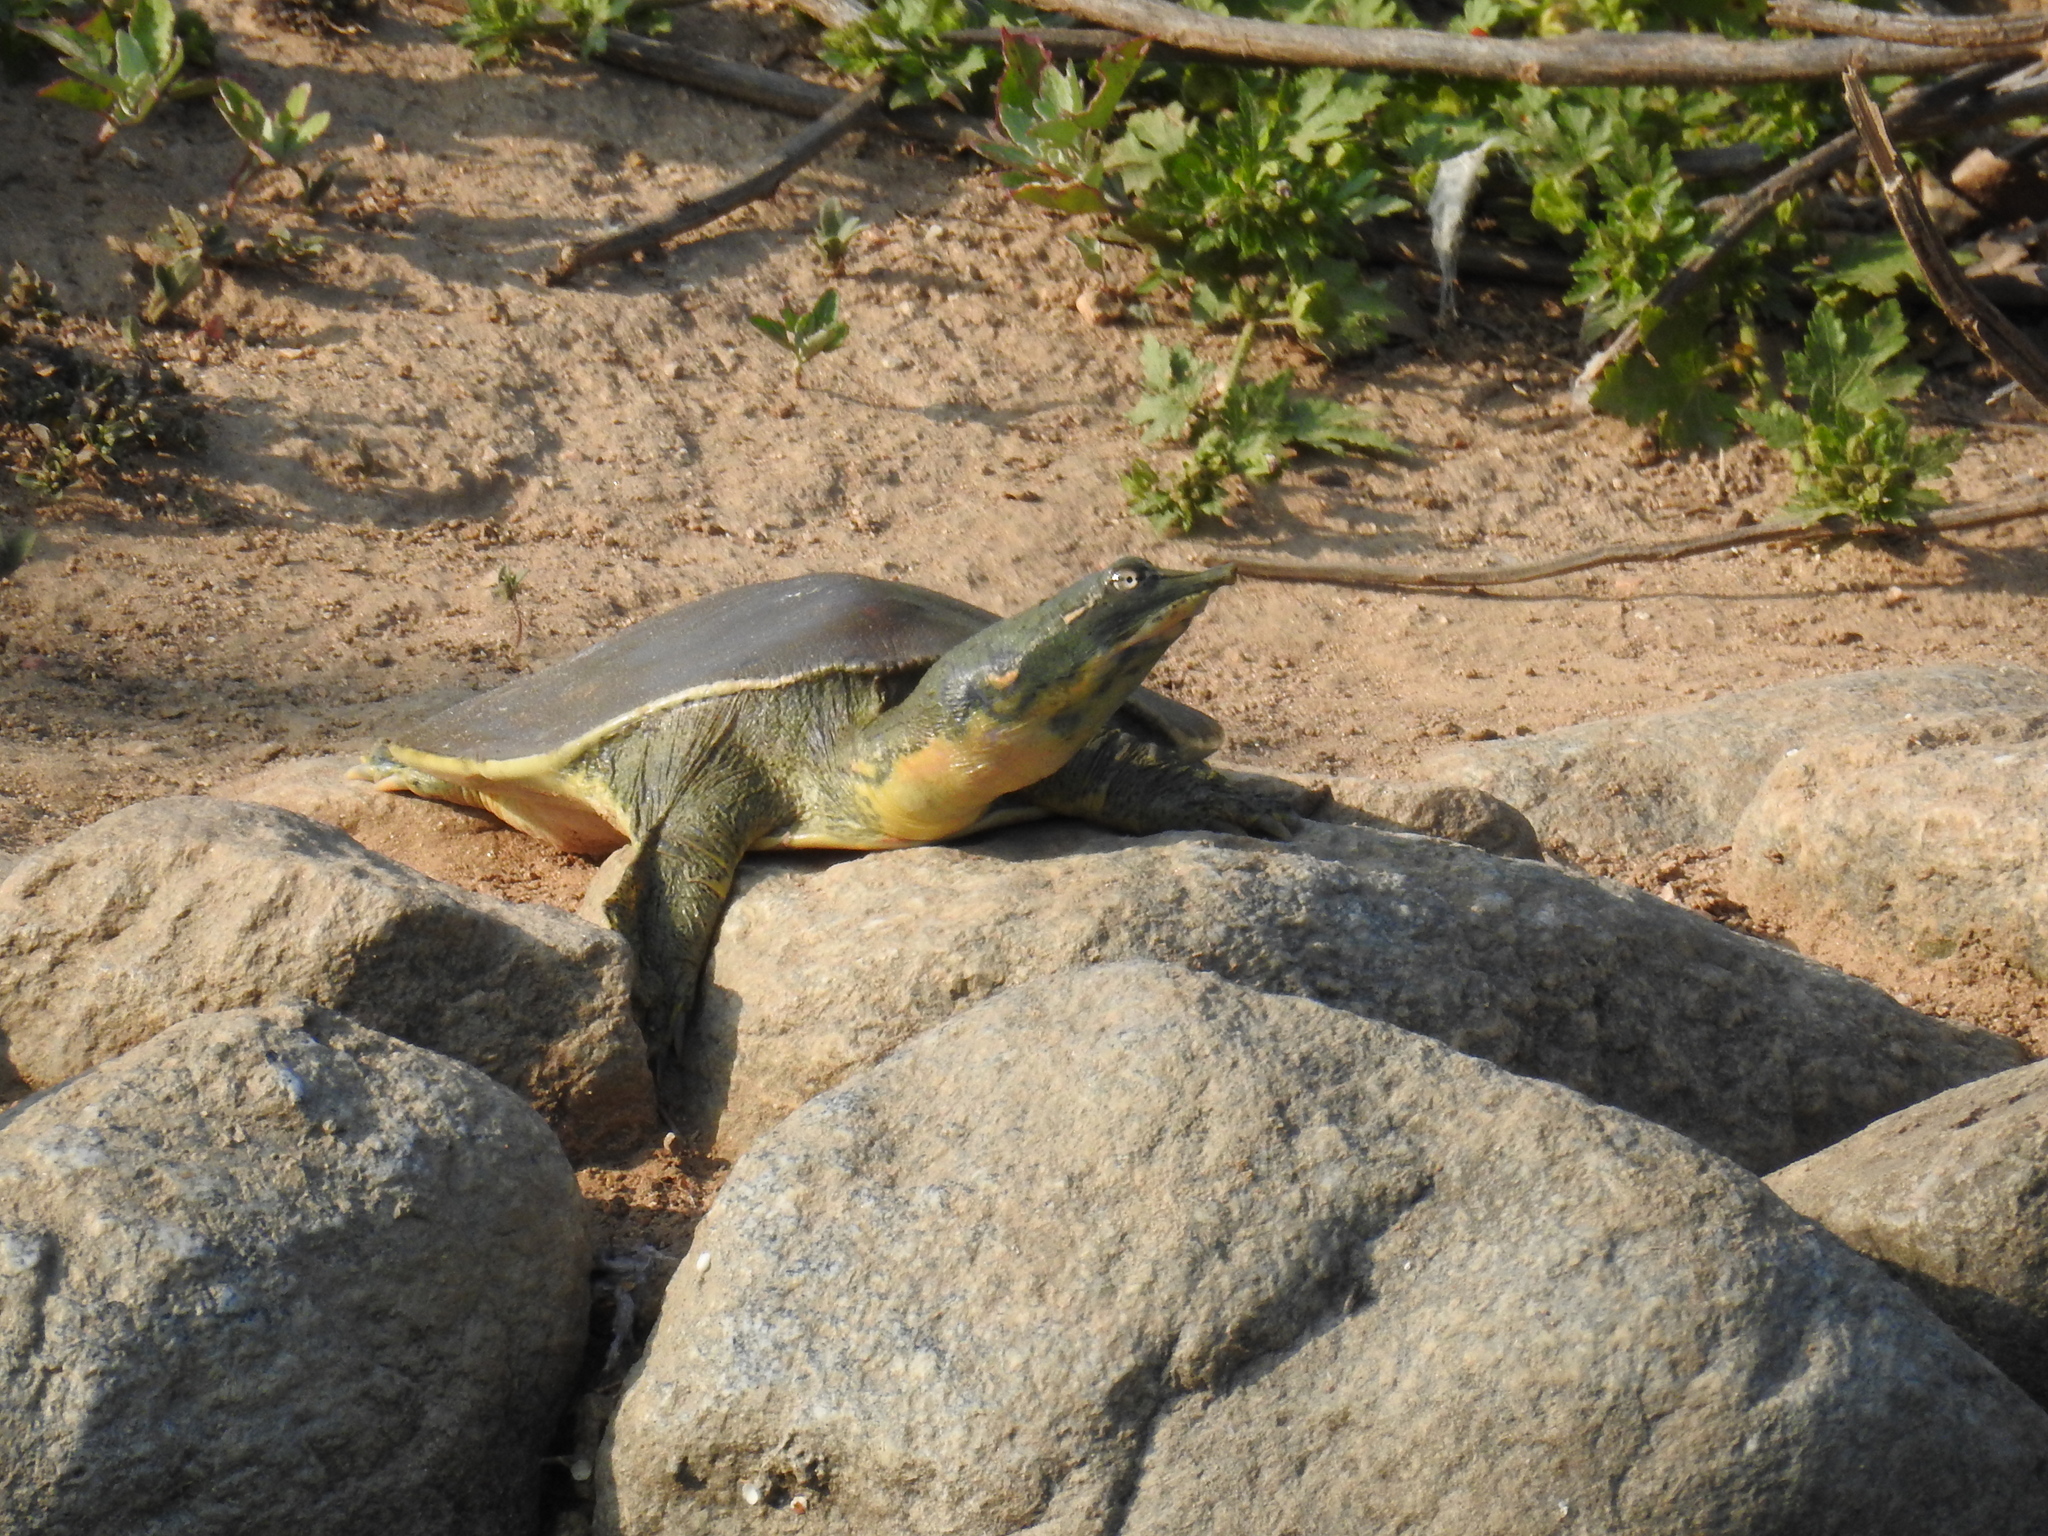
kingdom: Animalia
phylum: Chordata
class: Testudines
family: Trionychidae
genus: Apalone
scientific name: Apalone spinifera
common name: Spiny softshell turtle
